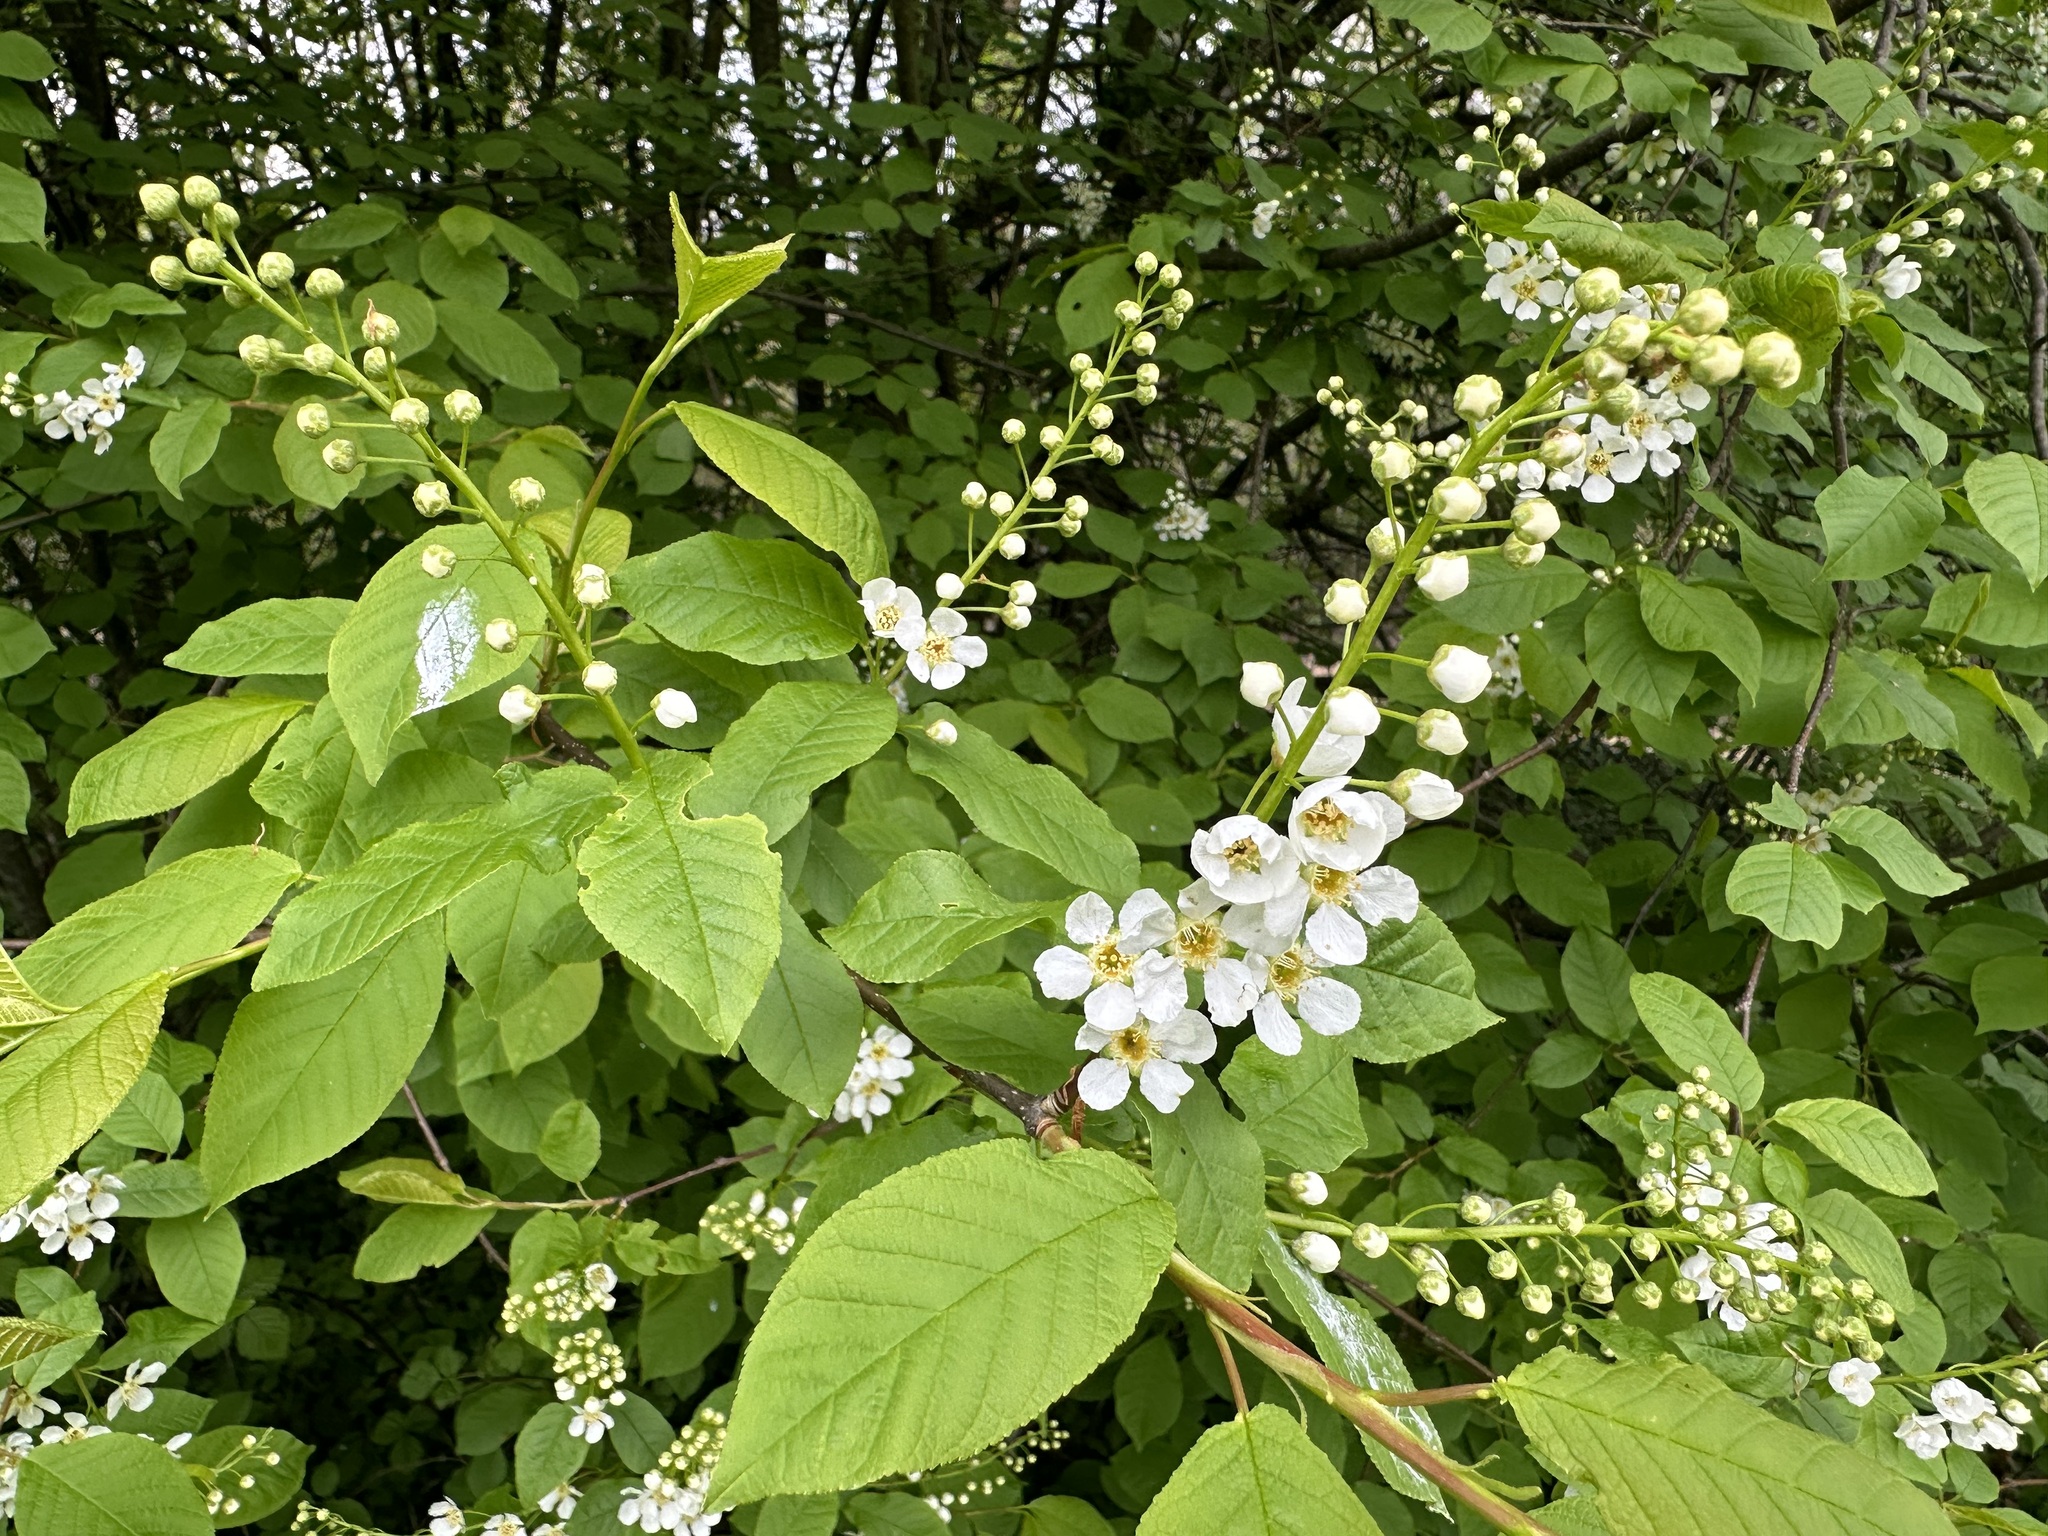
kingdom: Plantae
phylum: Tracheophyta
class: Magnoliopsida
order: Rosales
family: Rosaceae
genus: Prunus
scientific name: Prunus padus
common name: Bird cherry
